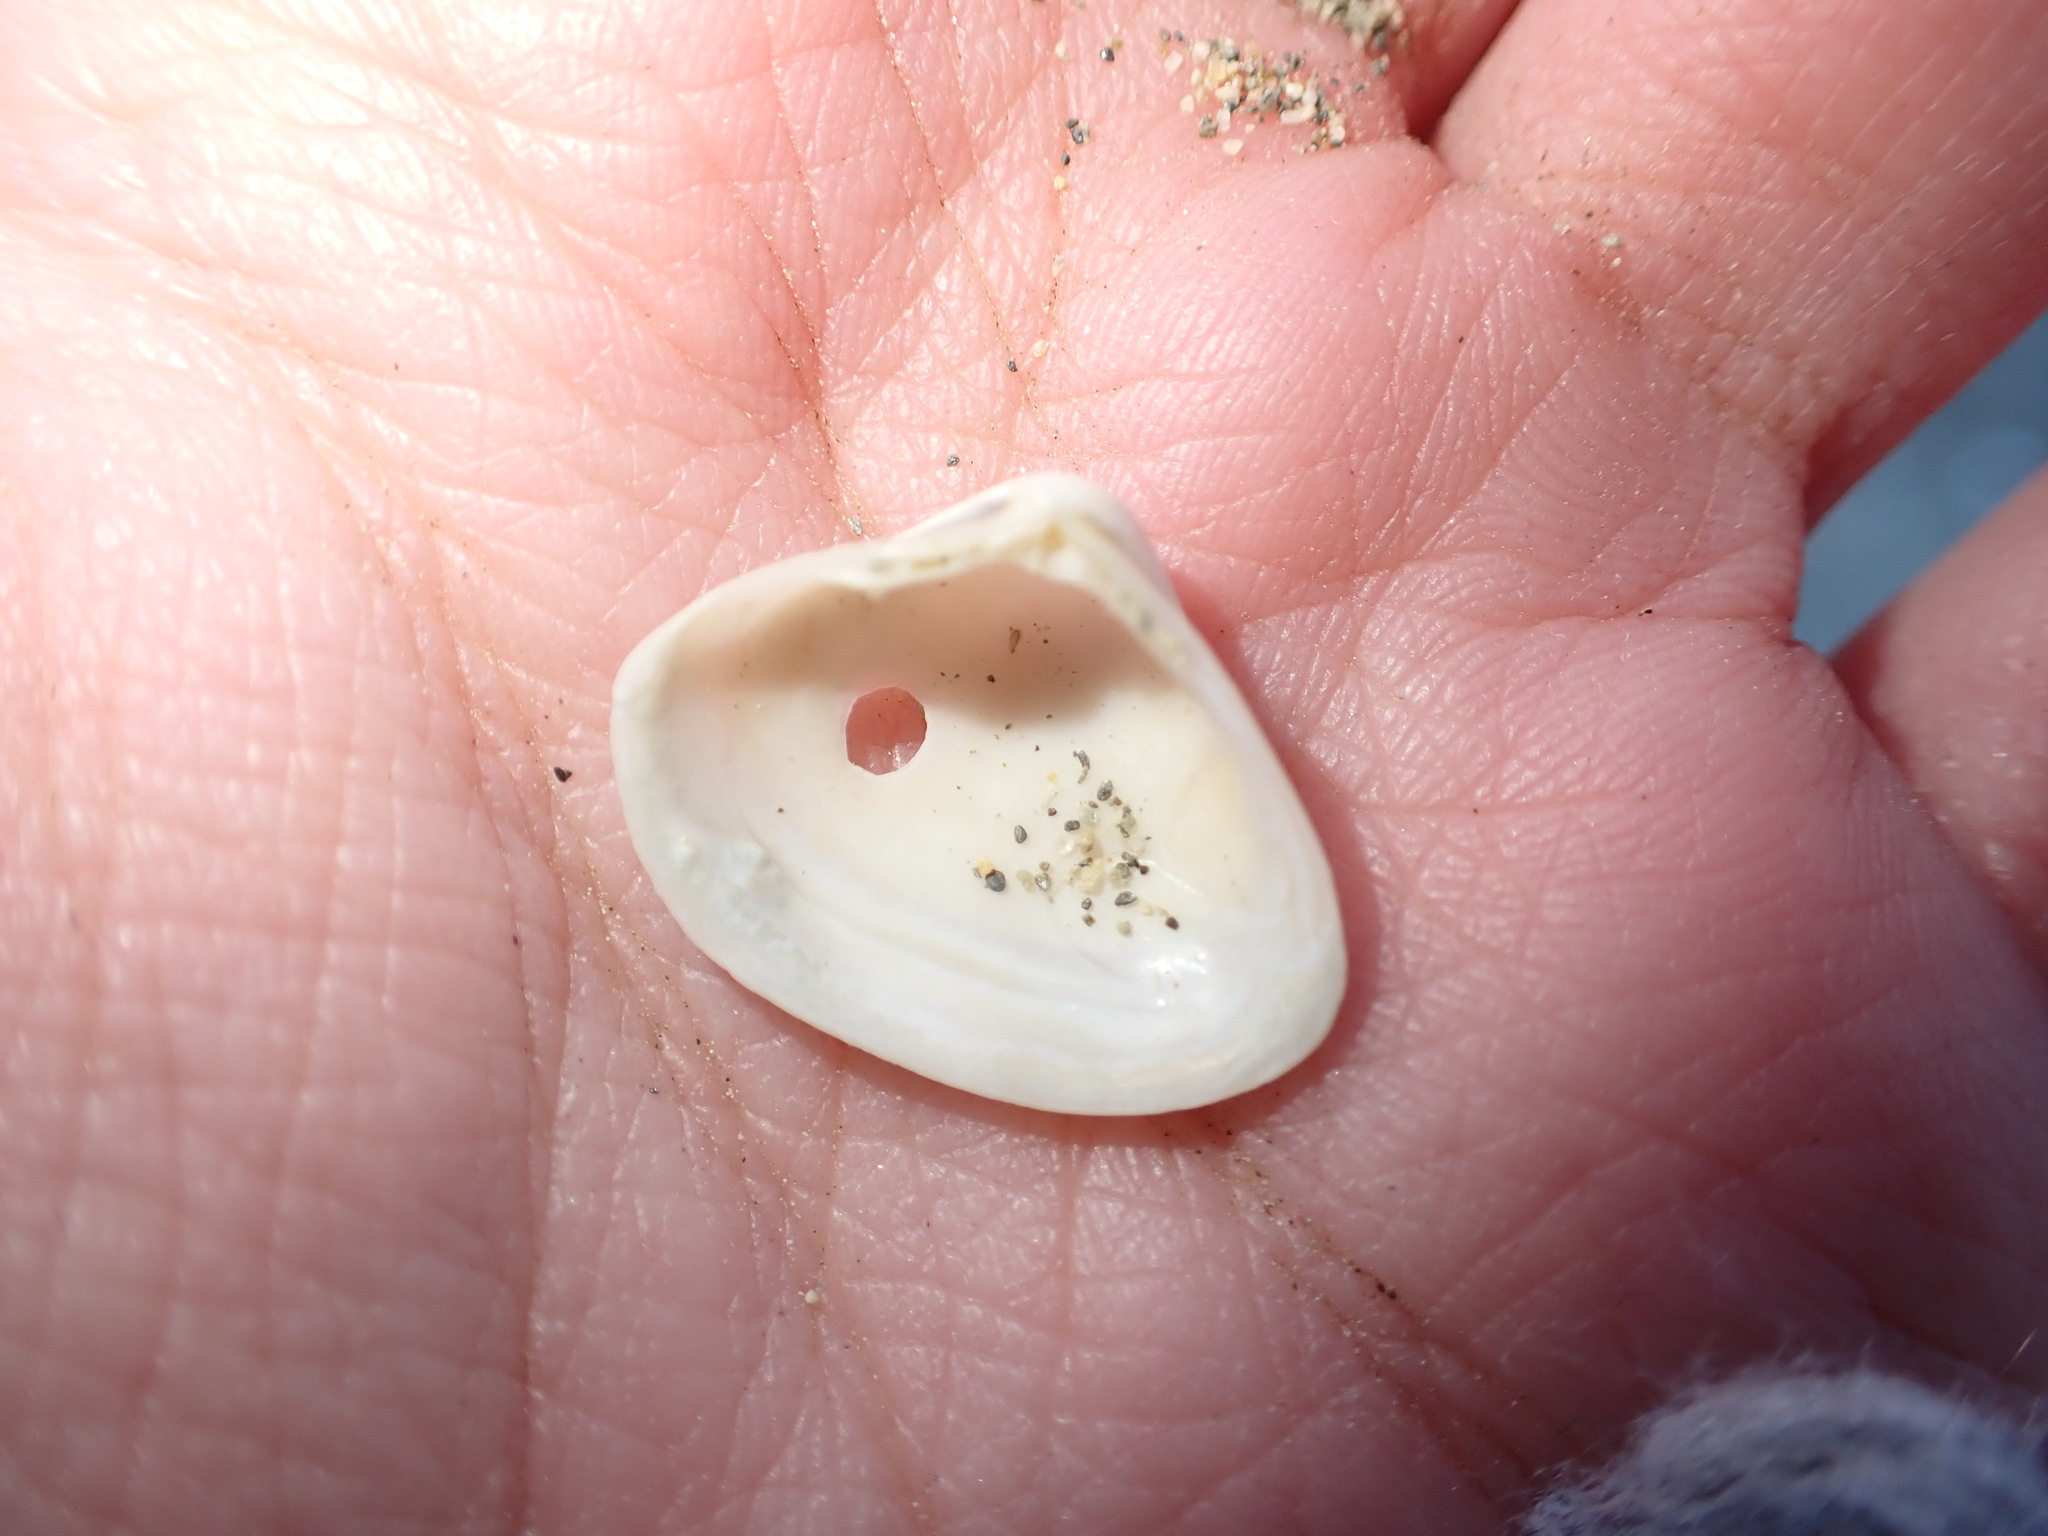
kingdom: Animalia
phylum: Mollusca
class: Bivalvia
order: Venerida
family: Mactridae
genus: Spisula
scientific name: Spisula subtruncata
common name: Cut trough shell
